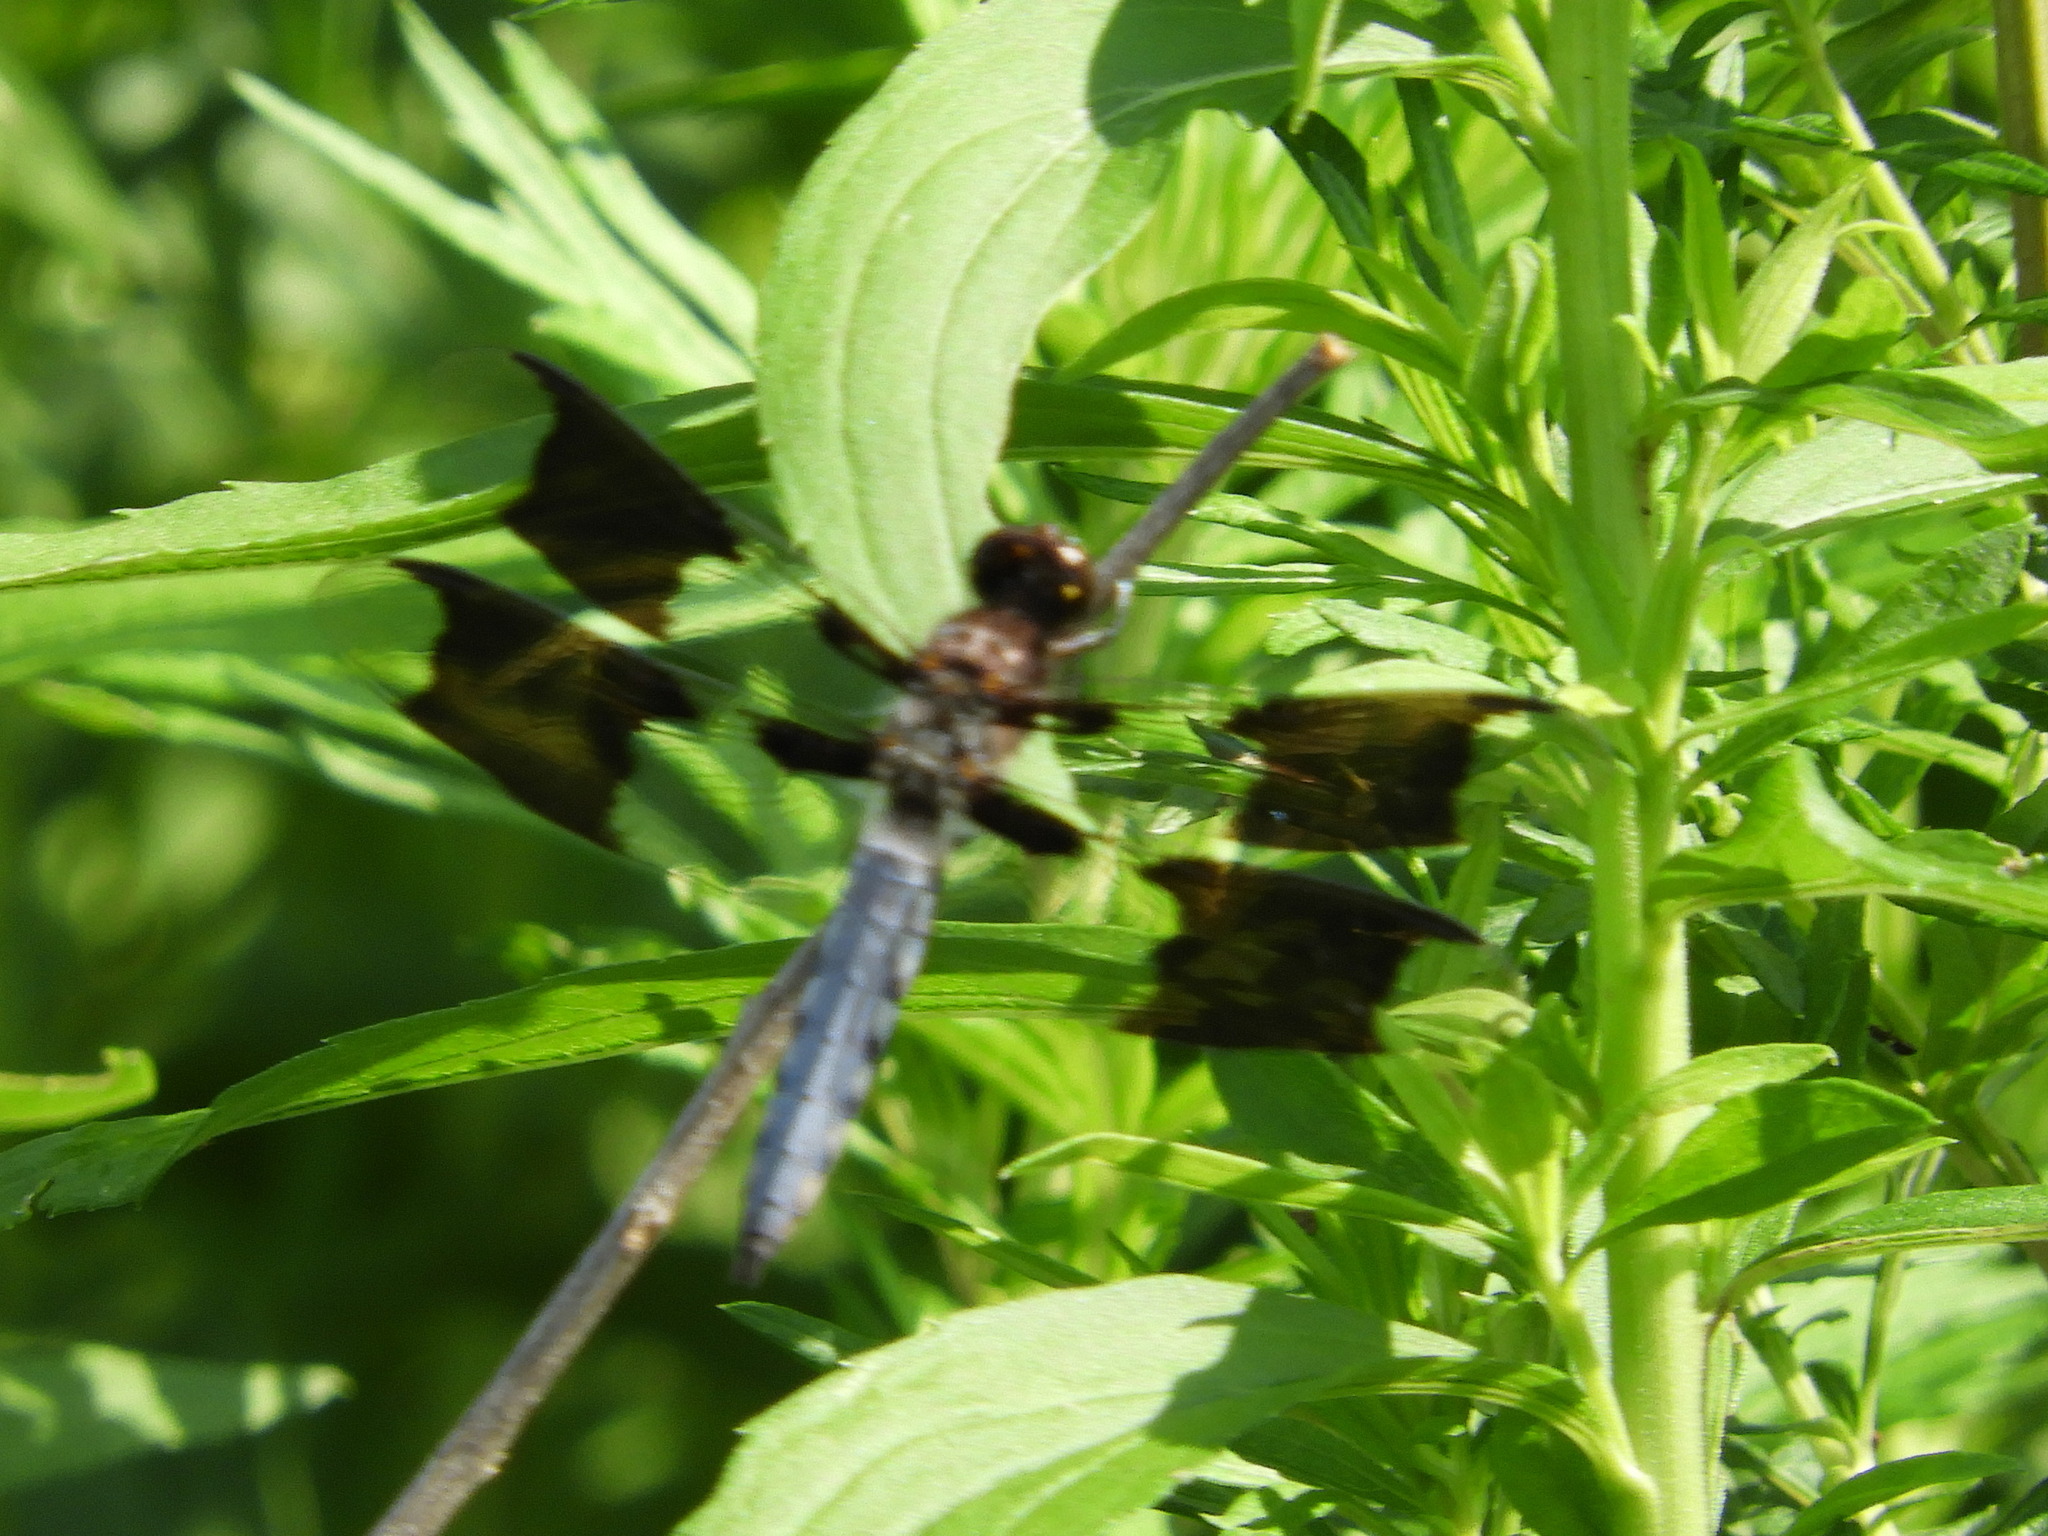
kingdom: Animalia
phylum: Arthropoda
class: Insecta
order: Odonata
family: Libellulidae
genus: Plathemis
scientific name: Plathemis lydia
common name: Common whitetail
